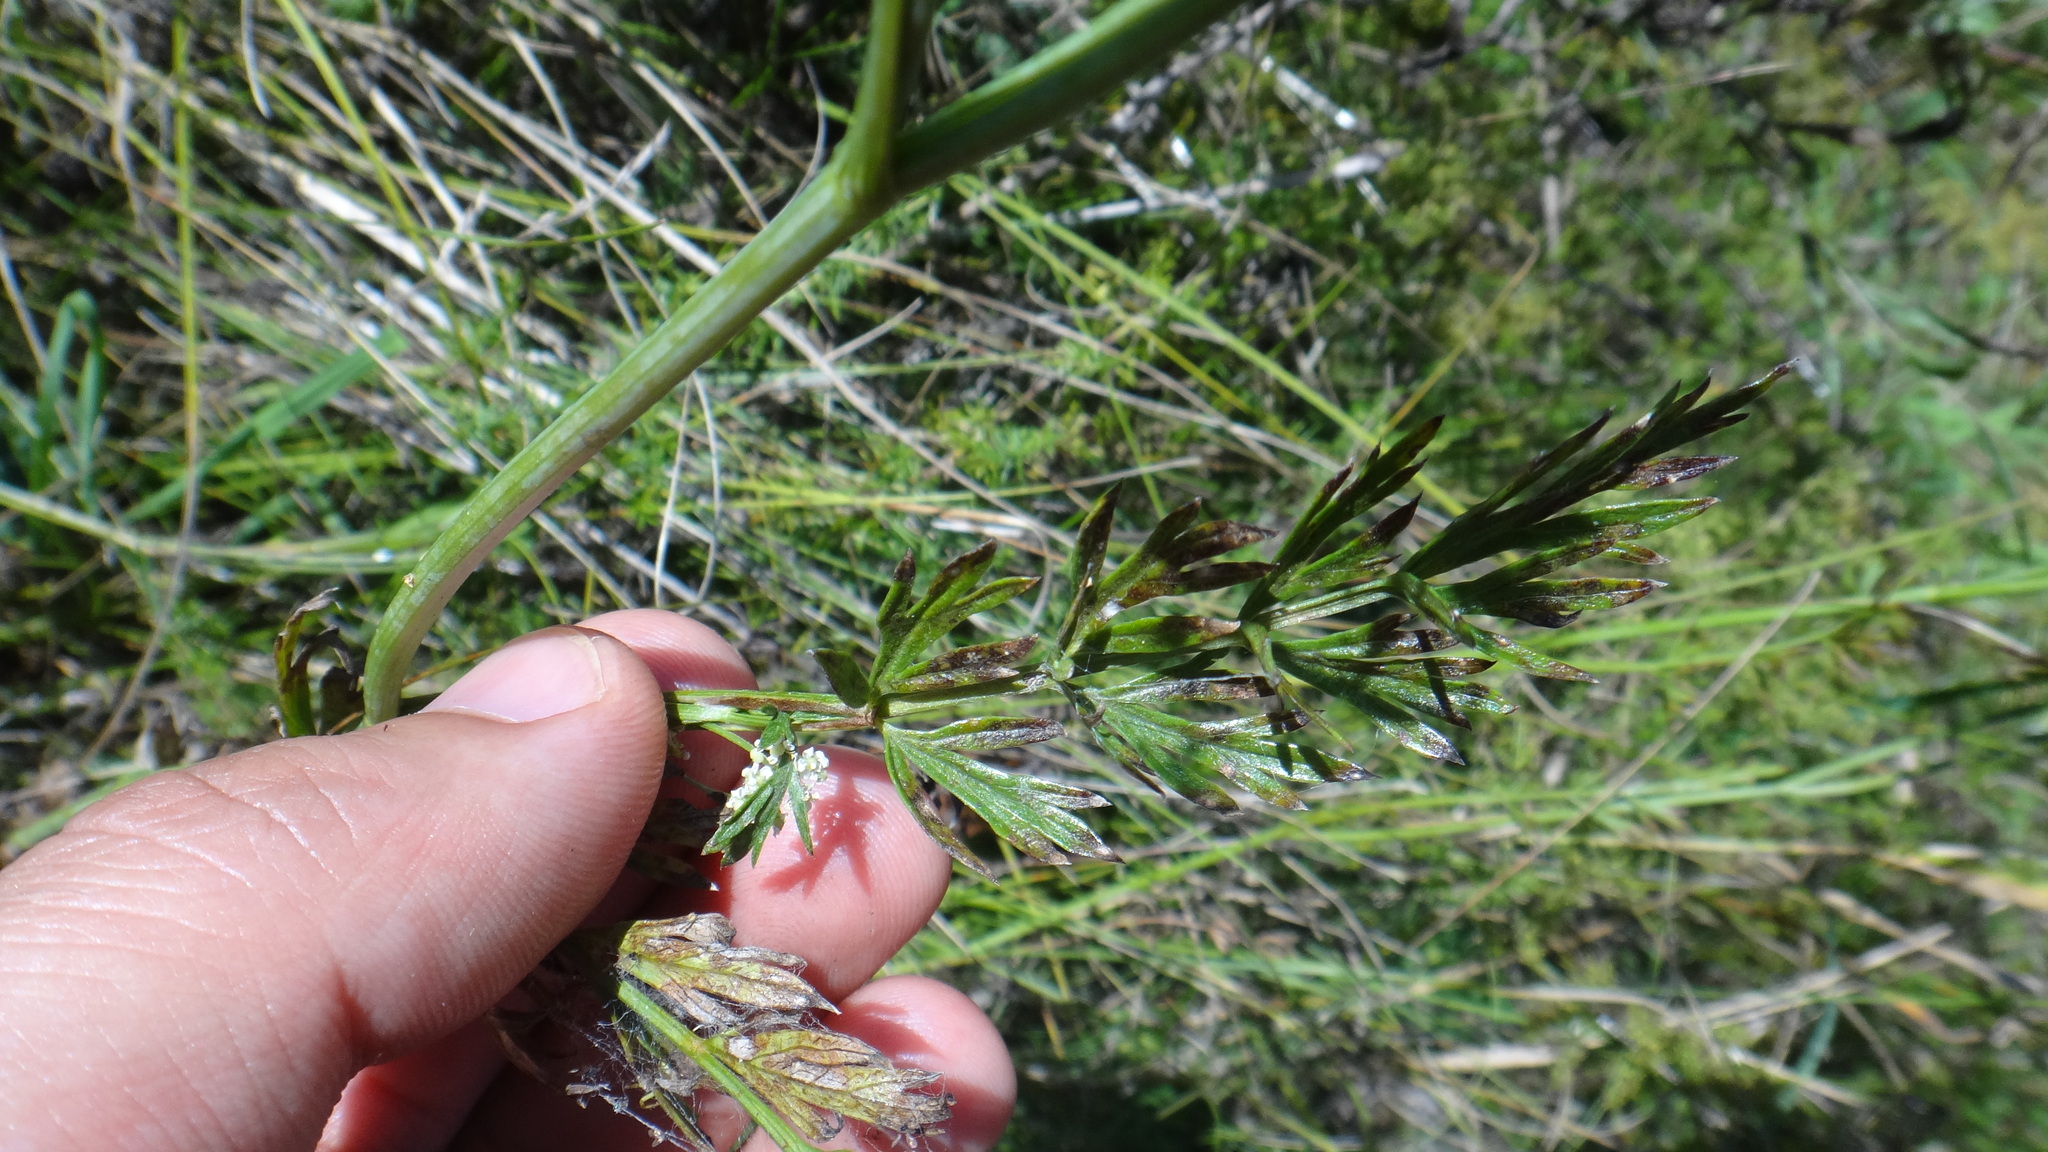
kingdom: Plantae
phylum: Tracheophyta
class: Magnoliopsida
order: Apiales
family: Apiaceae
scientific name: Apiaceae
